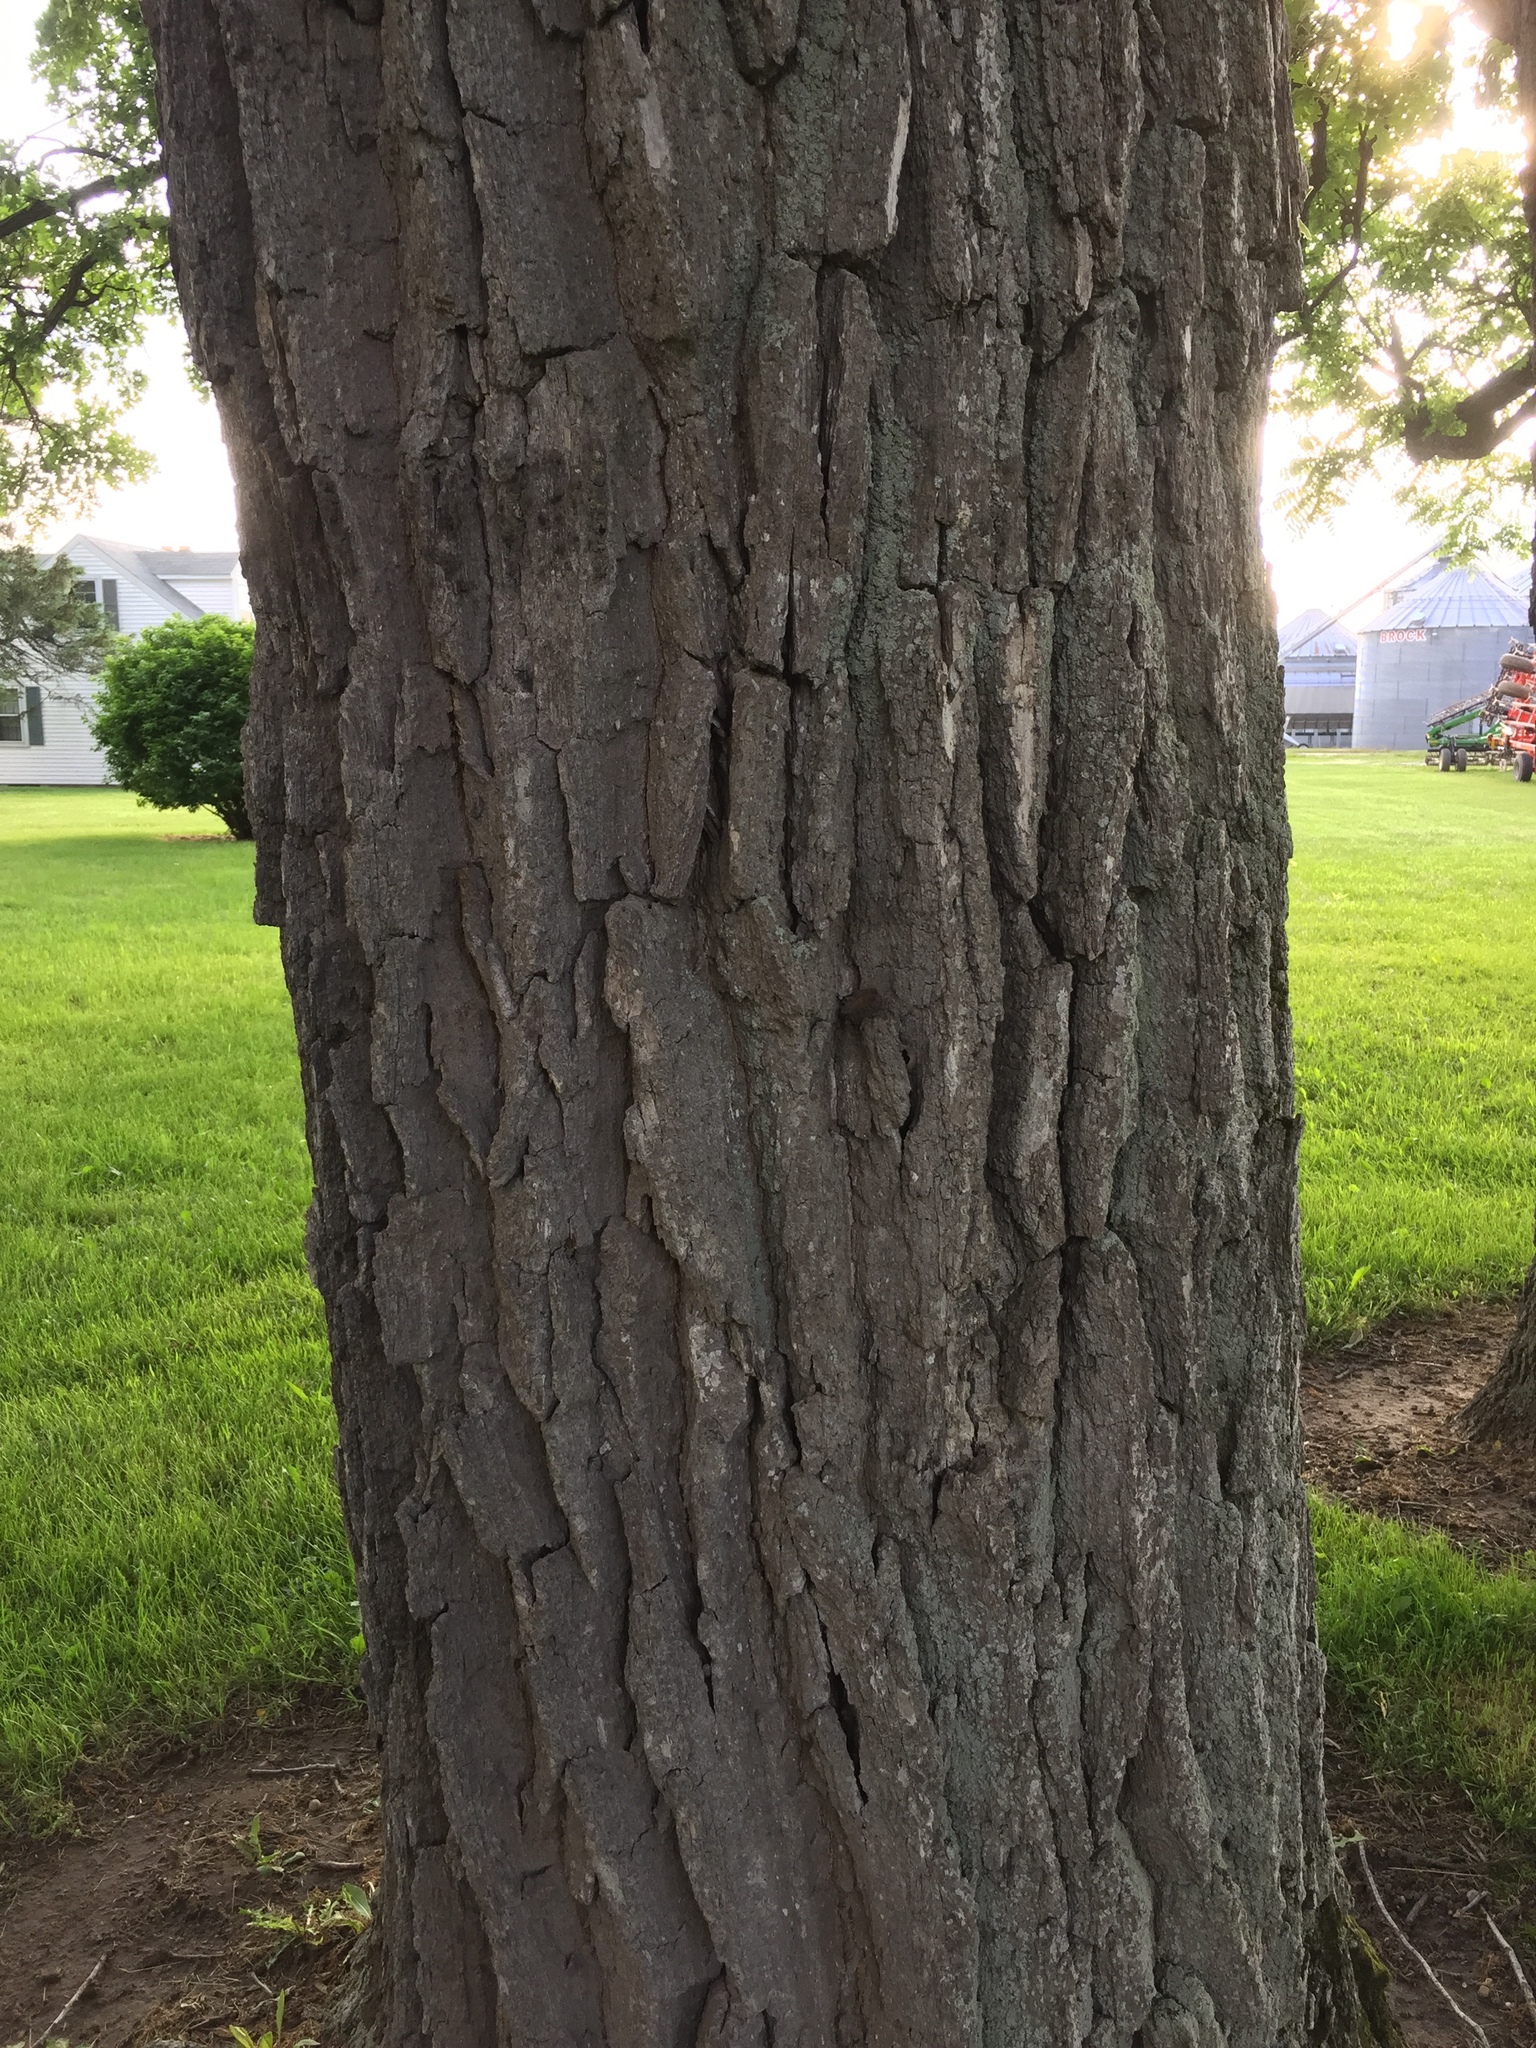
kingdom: Plantae
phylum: Tracheophyta
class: Magnoliopsida
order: Fagales
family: Fagaceae
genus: Quercus
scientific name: Quercus macrocarpa
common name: Bur oak
